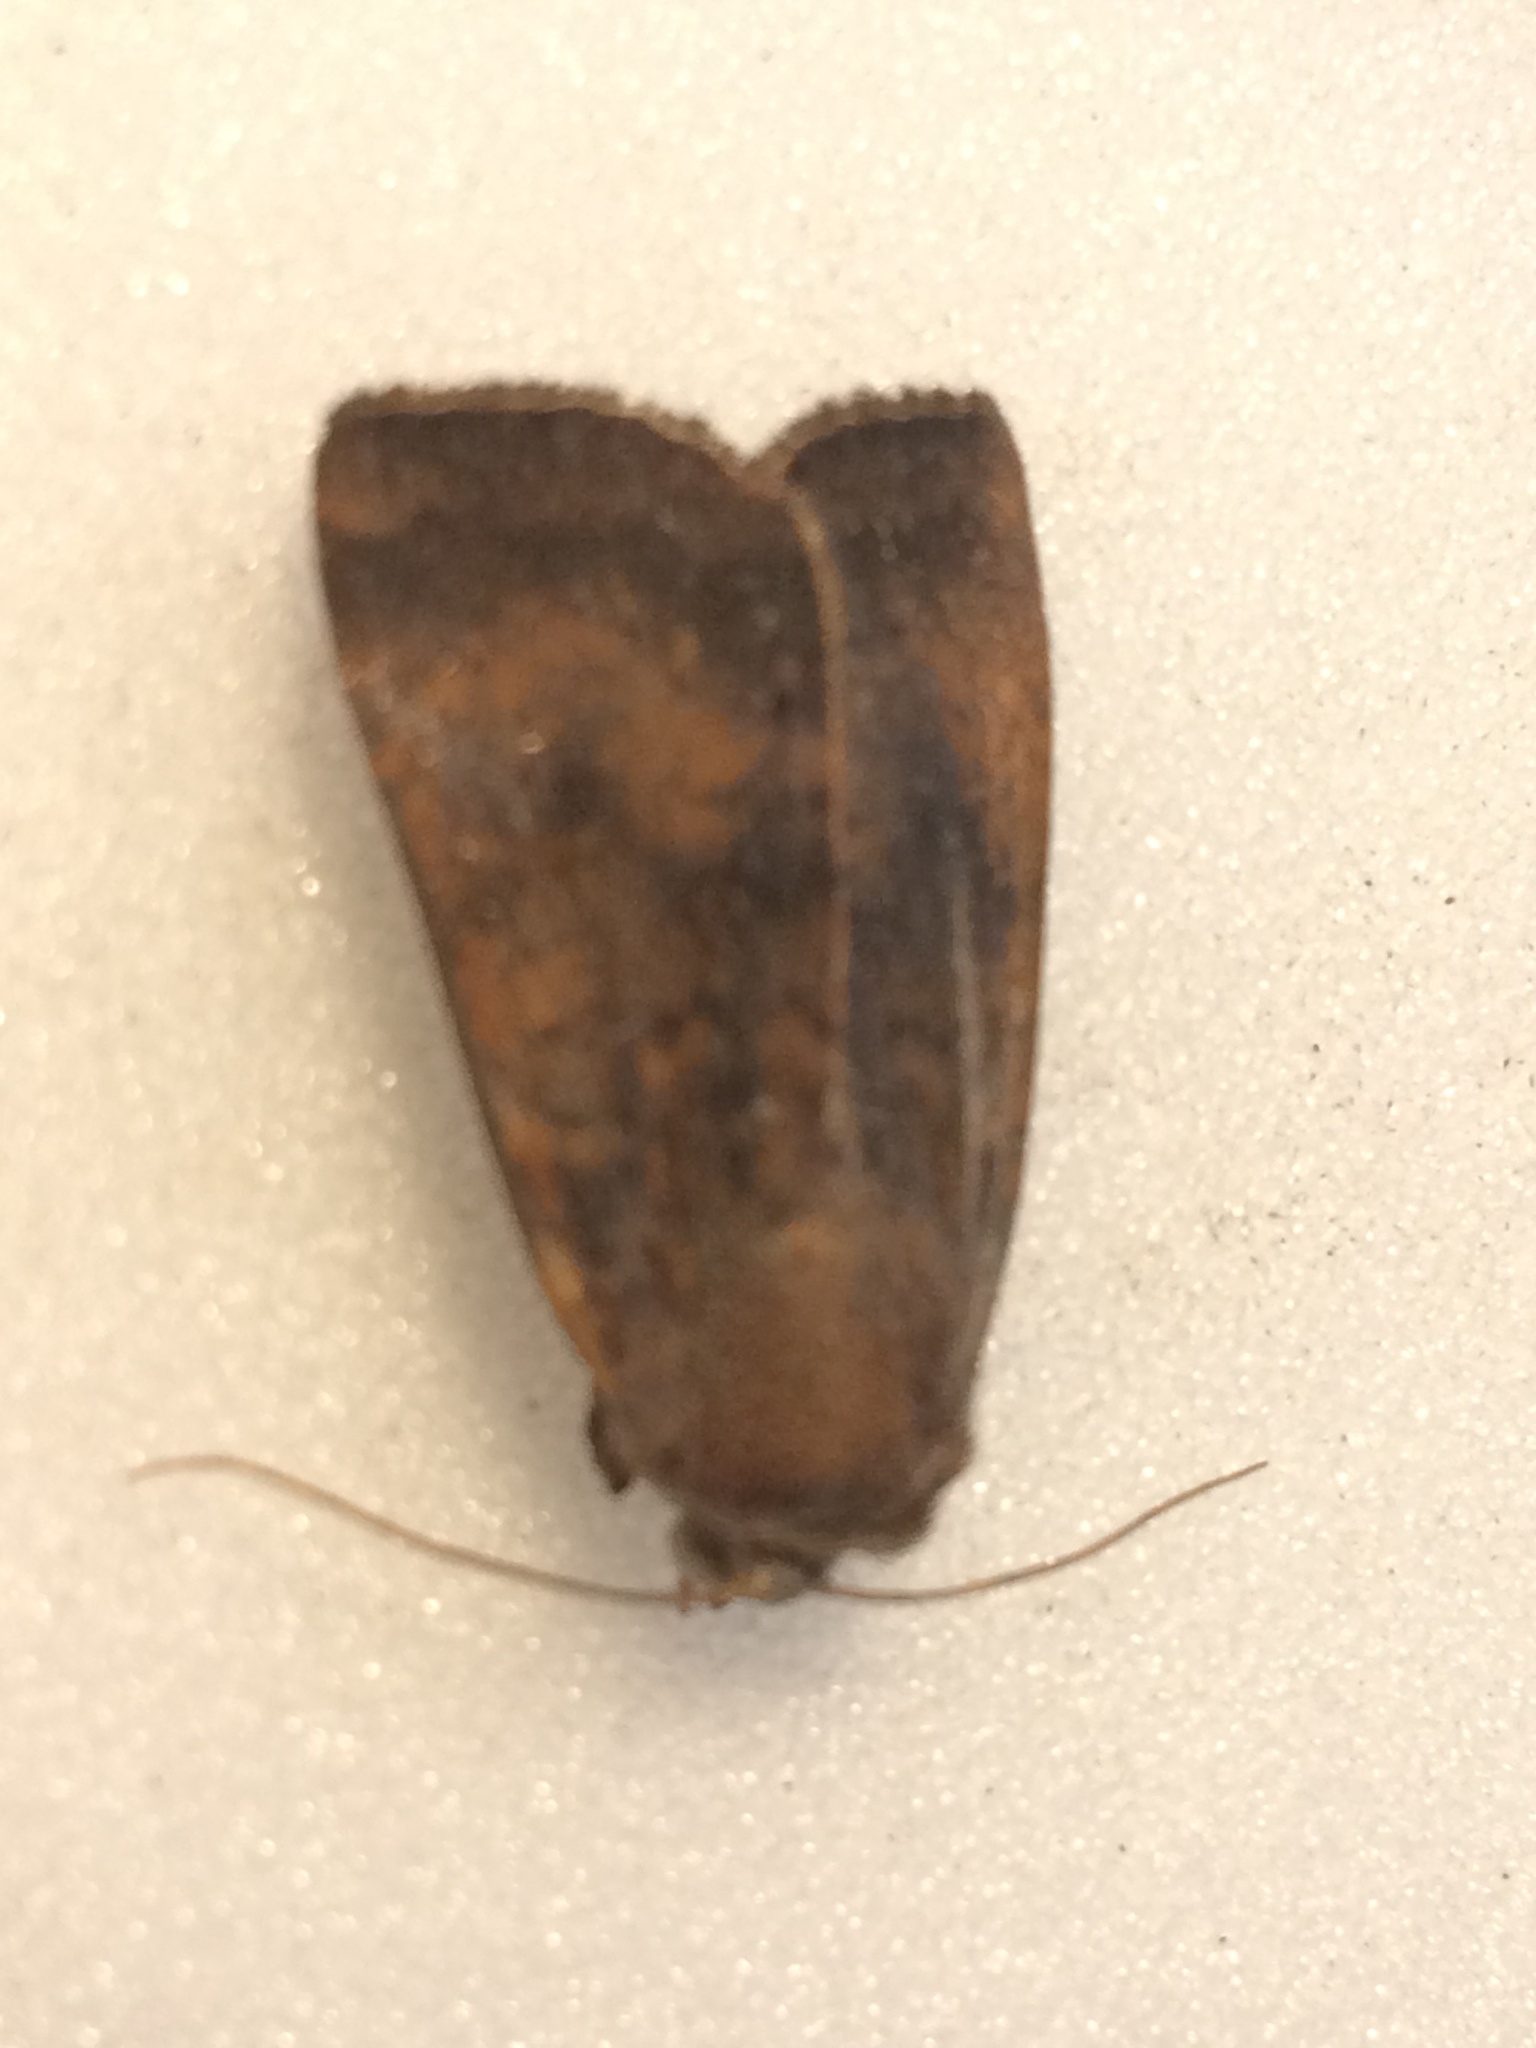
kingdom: Animalia
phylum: Arthropoda
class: Insecta
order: Lepidoptera
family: Noctuidae
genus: Noctua
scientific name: Noctua interjecta
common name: Least yellow underwing
